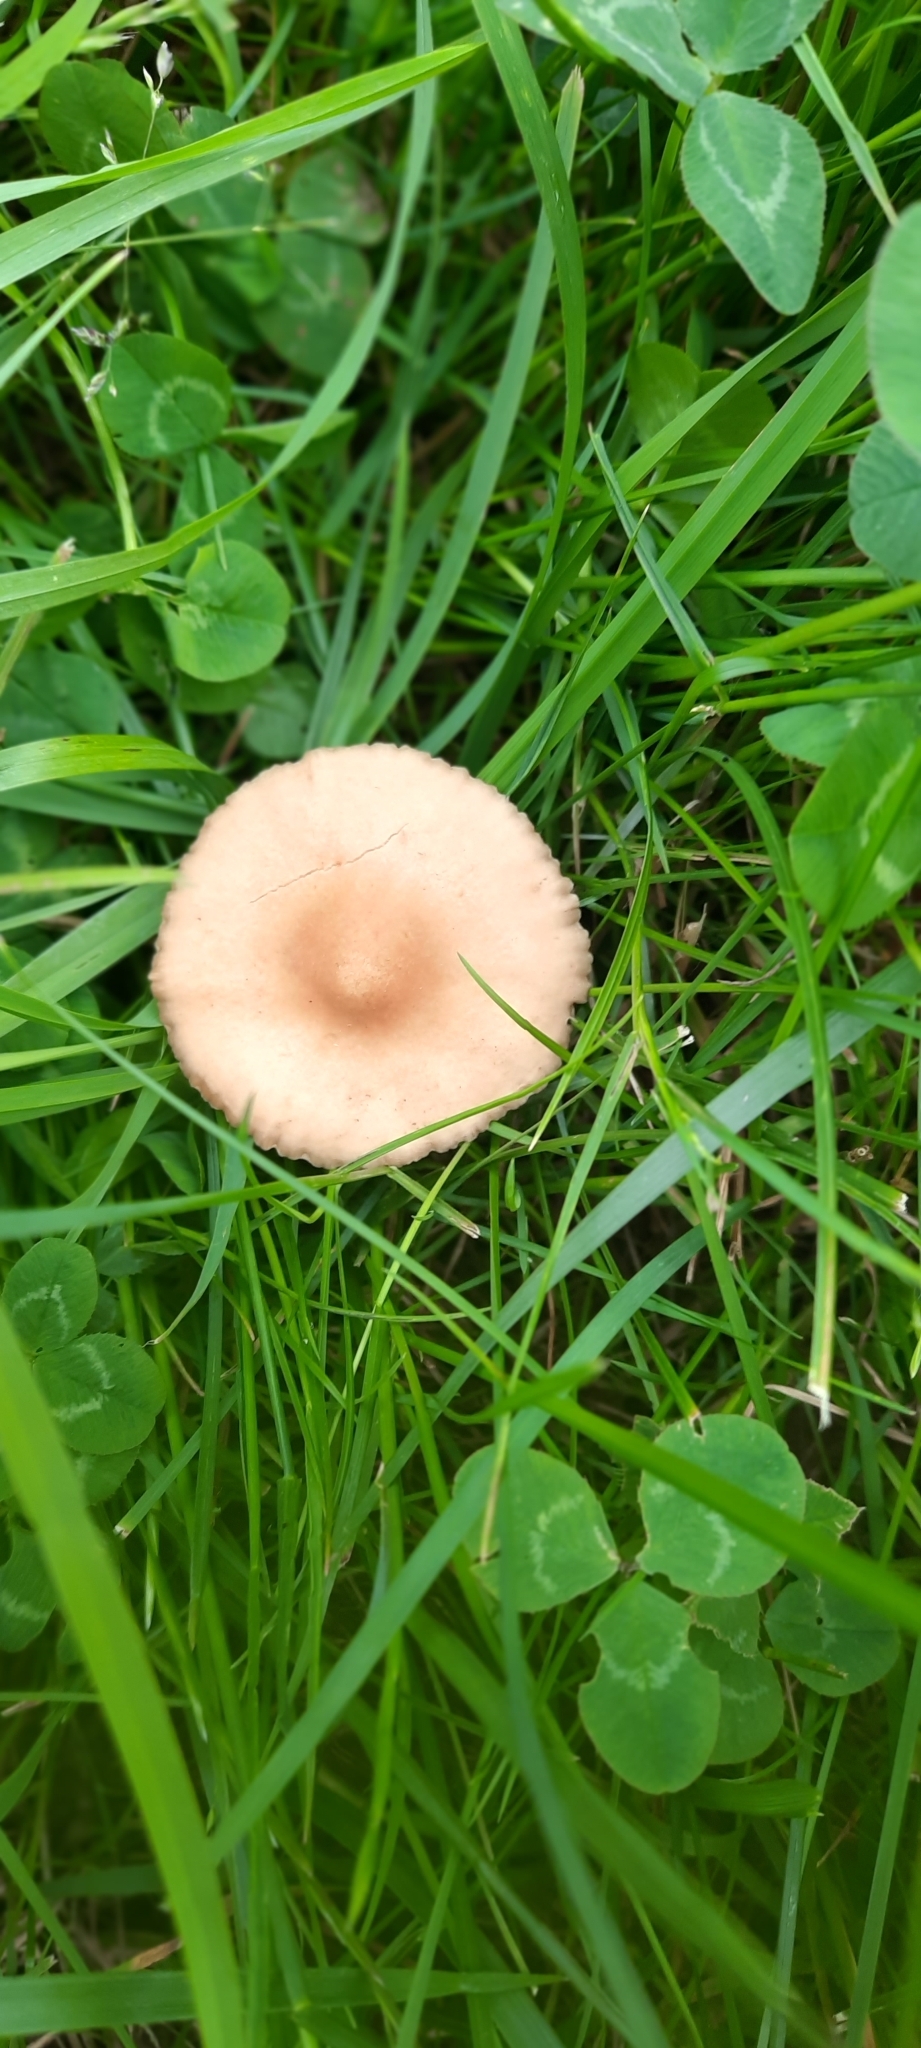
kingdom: Fungi
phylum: Basidiomycota
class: Agaricomycetes
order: Agaricales
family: Marasmiaceae
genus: Marasmius
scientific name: Marasmius oreades
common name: Fairy ring champignon
